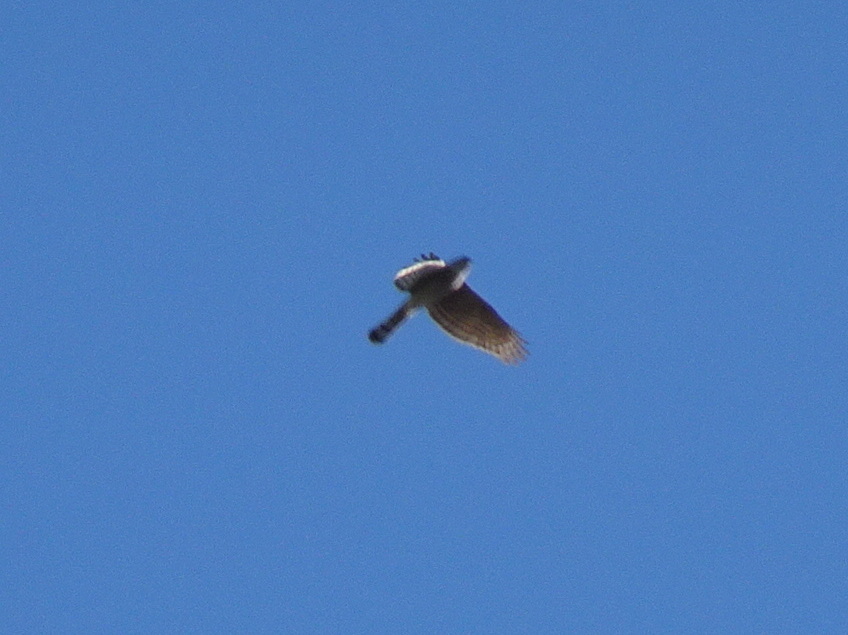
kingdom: Animalia
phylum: Chordata
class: Aves
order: Accipitriformes
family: Accipitridae
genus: Accipiter
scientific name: Accipiter nisus
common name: Eurasian sparrowhawk
